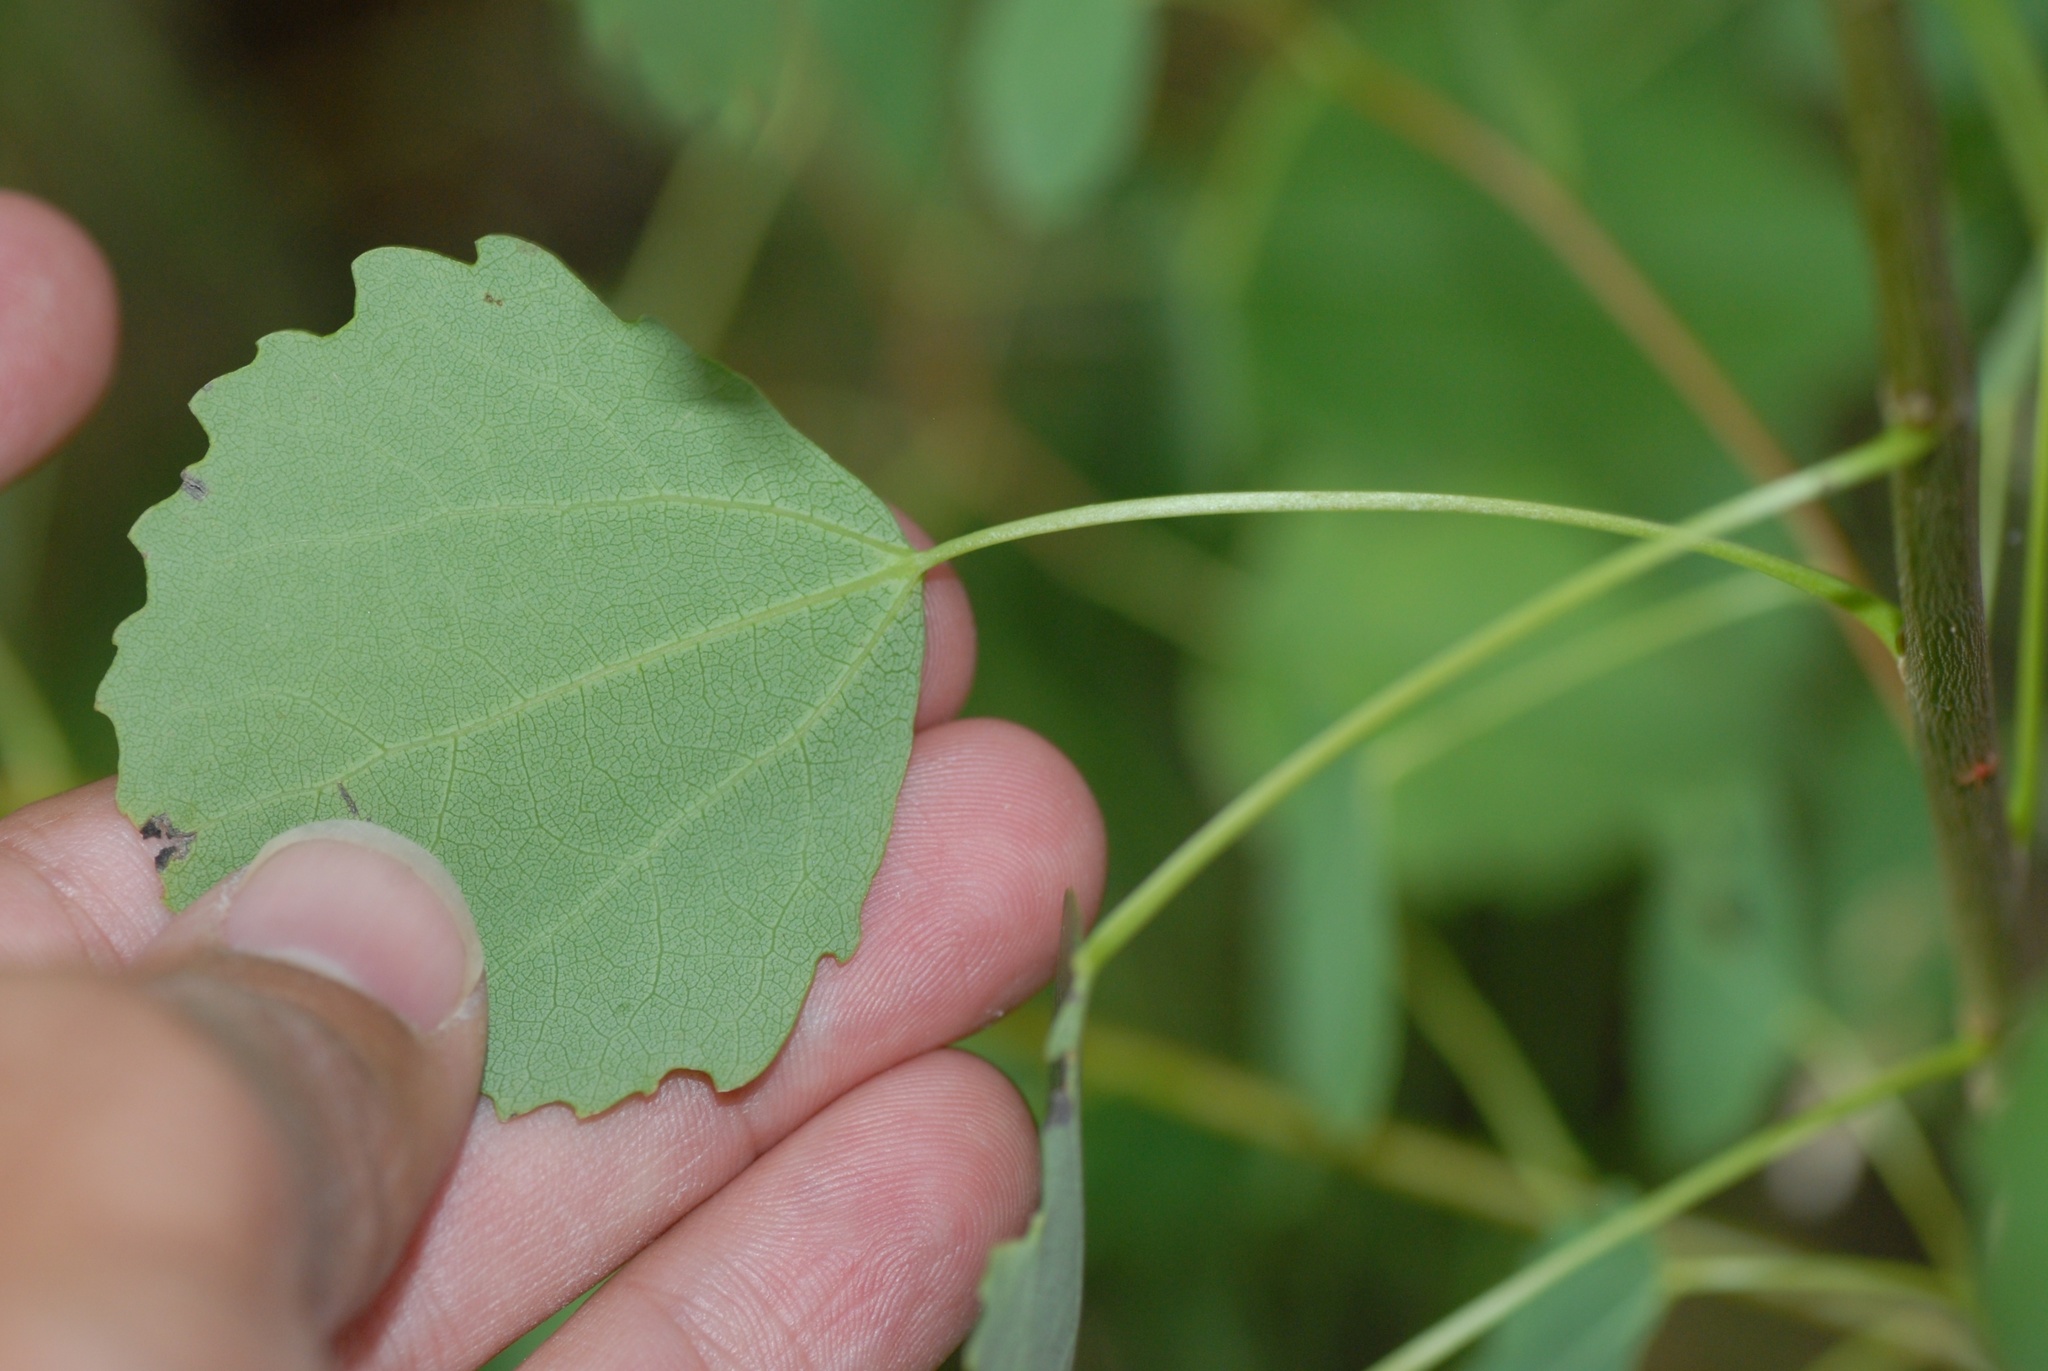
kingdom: Plantae
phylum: Tracheophyta
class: Magnoliopsida
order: Malpighiales
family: Salicaceae
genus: Populus
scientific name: Populus tremula
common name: European aspen
